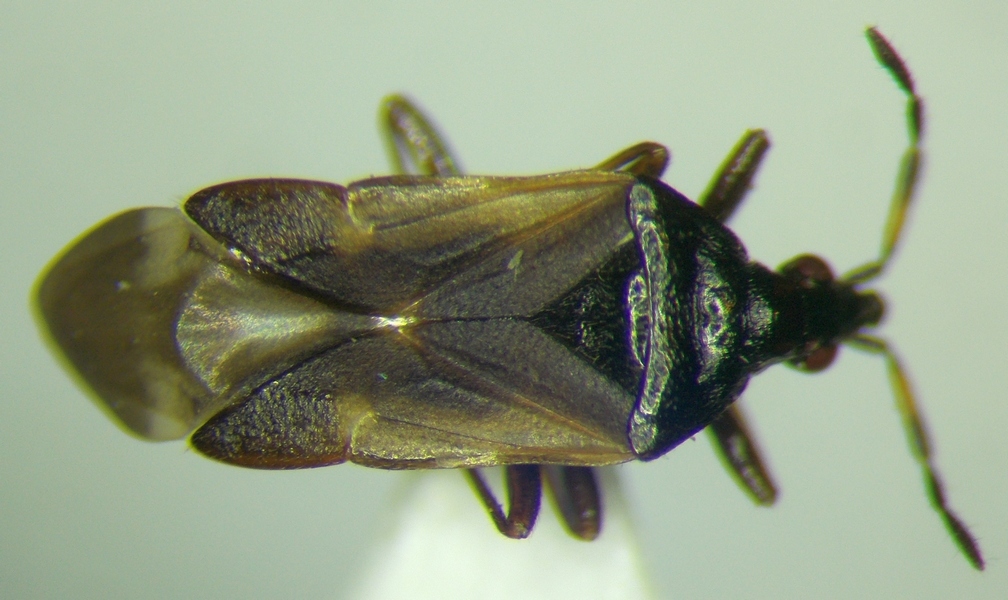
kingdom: Animalia
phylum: Arthropoda
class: Insecta
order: Hemiptera
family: Anthocoridae
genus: Anthocoris
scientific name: Anthocoris nemoralis
